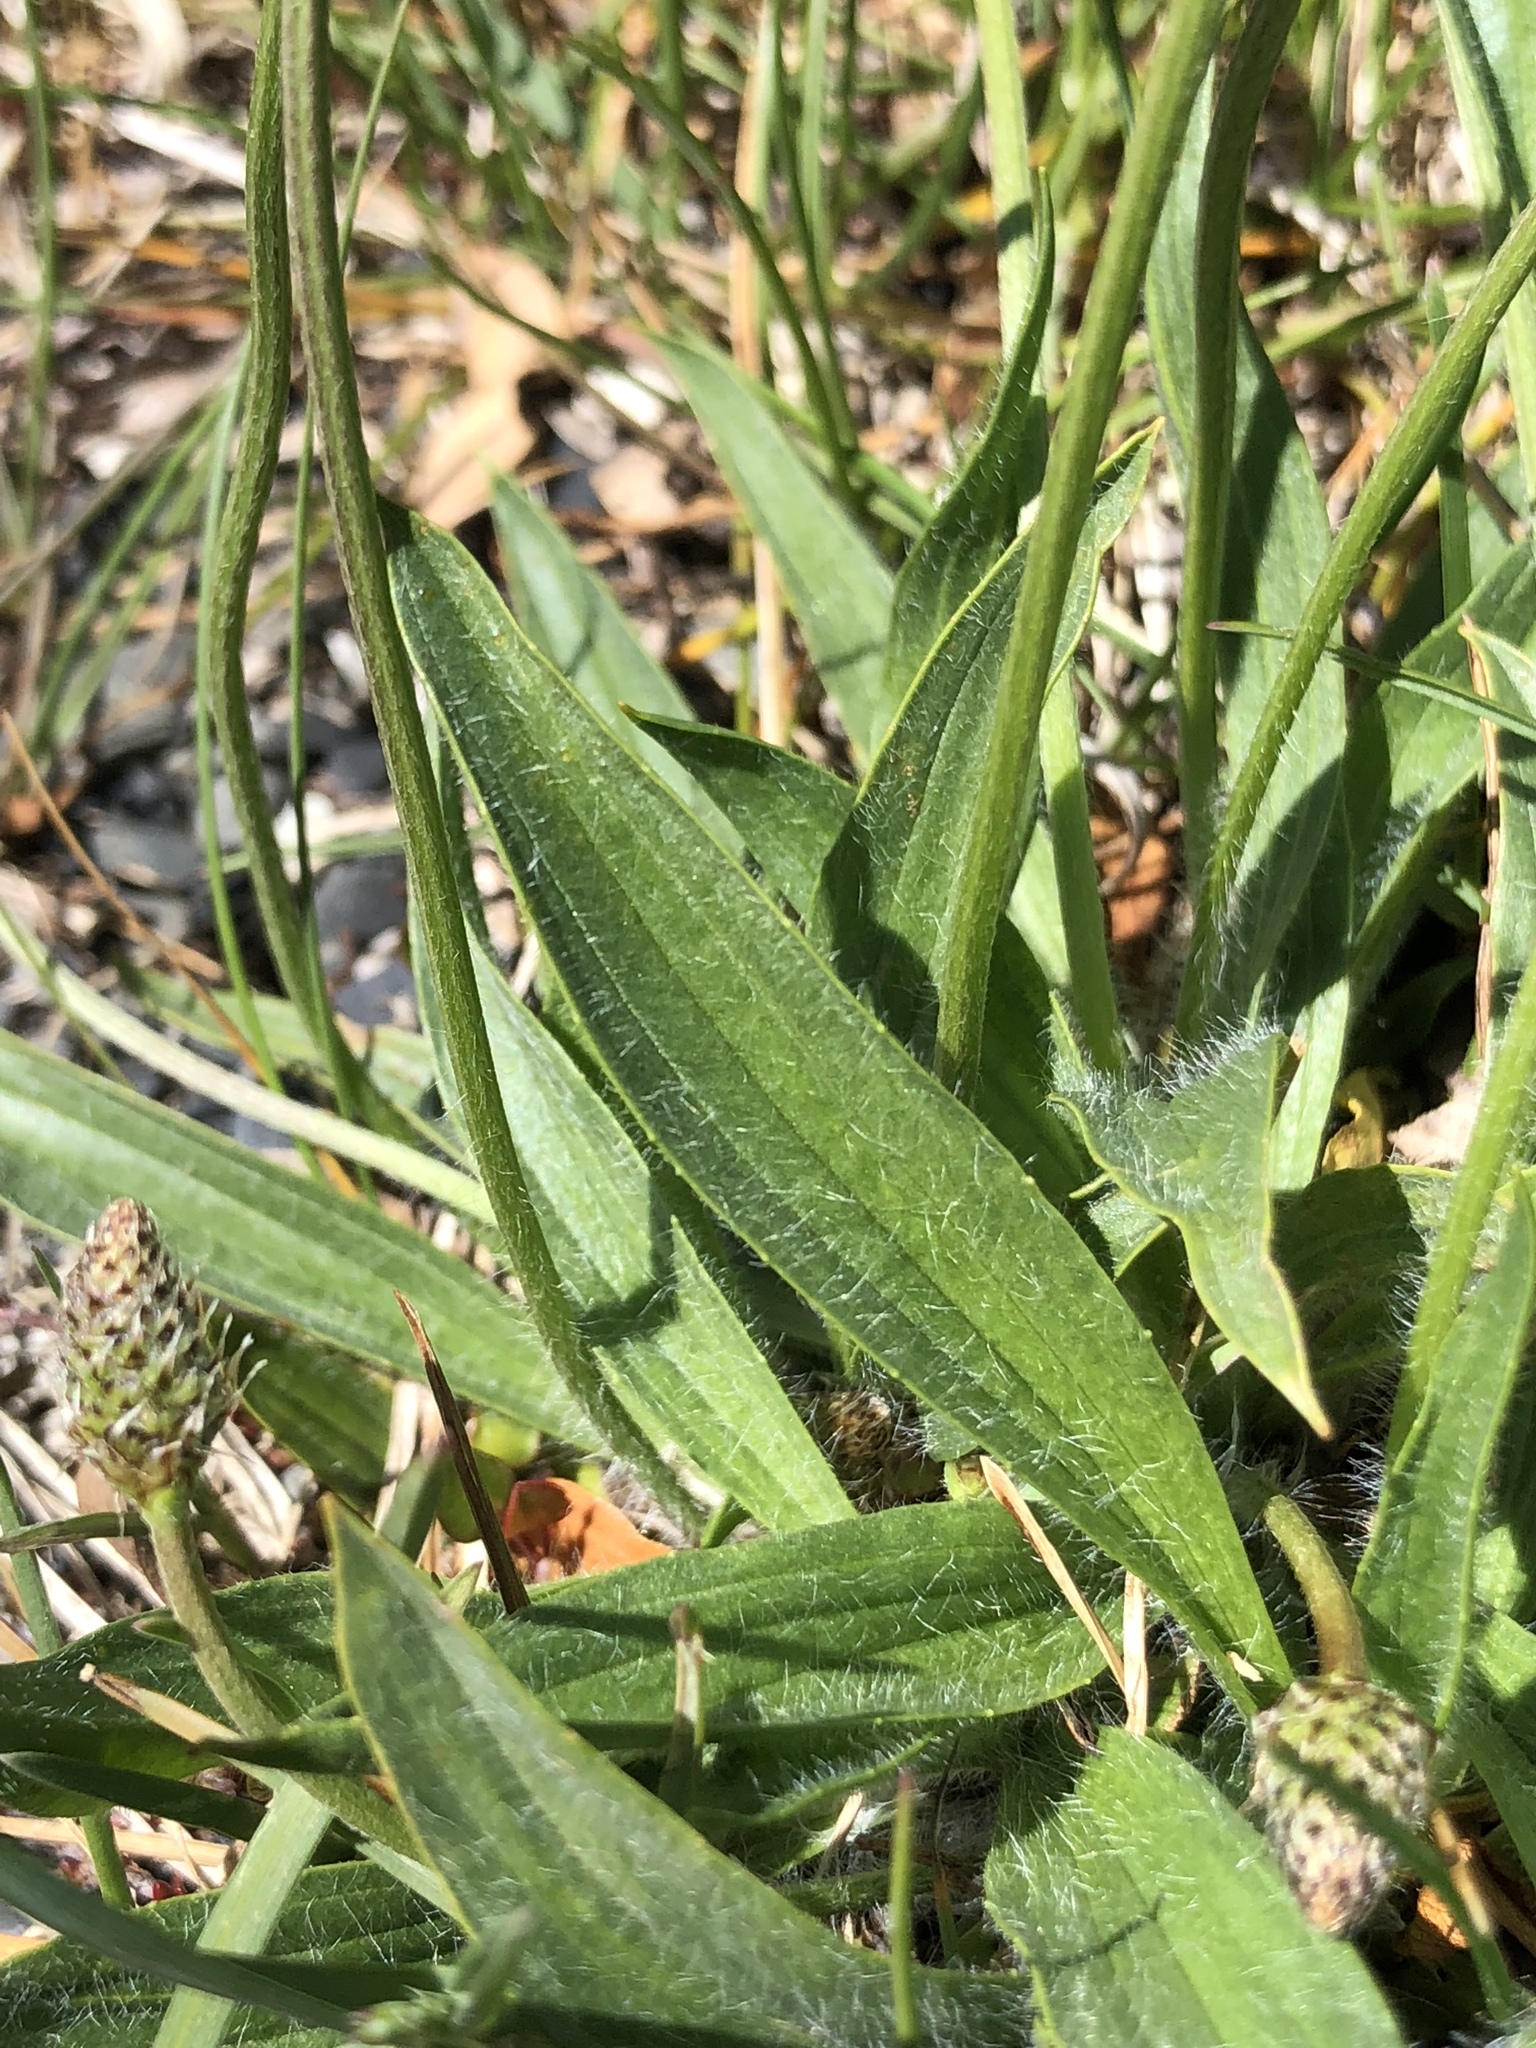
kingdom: Plantae
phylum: Tracheophyta
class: Magnoliopsida
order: Lamiales
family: Plantaginaceae
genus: Plantago
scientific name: Plantago lanceolata
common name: Ribwort plantain
